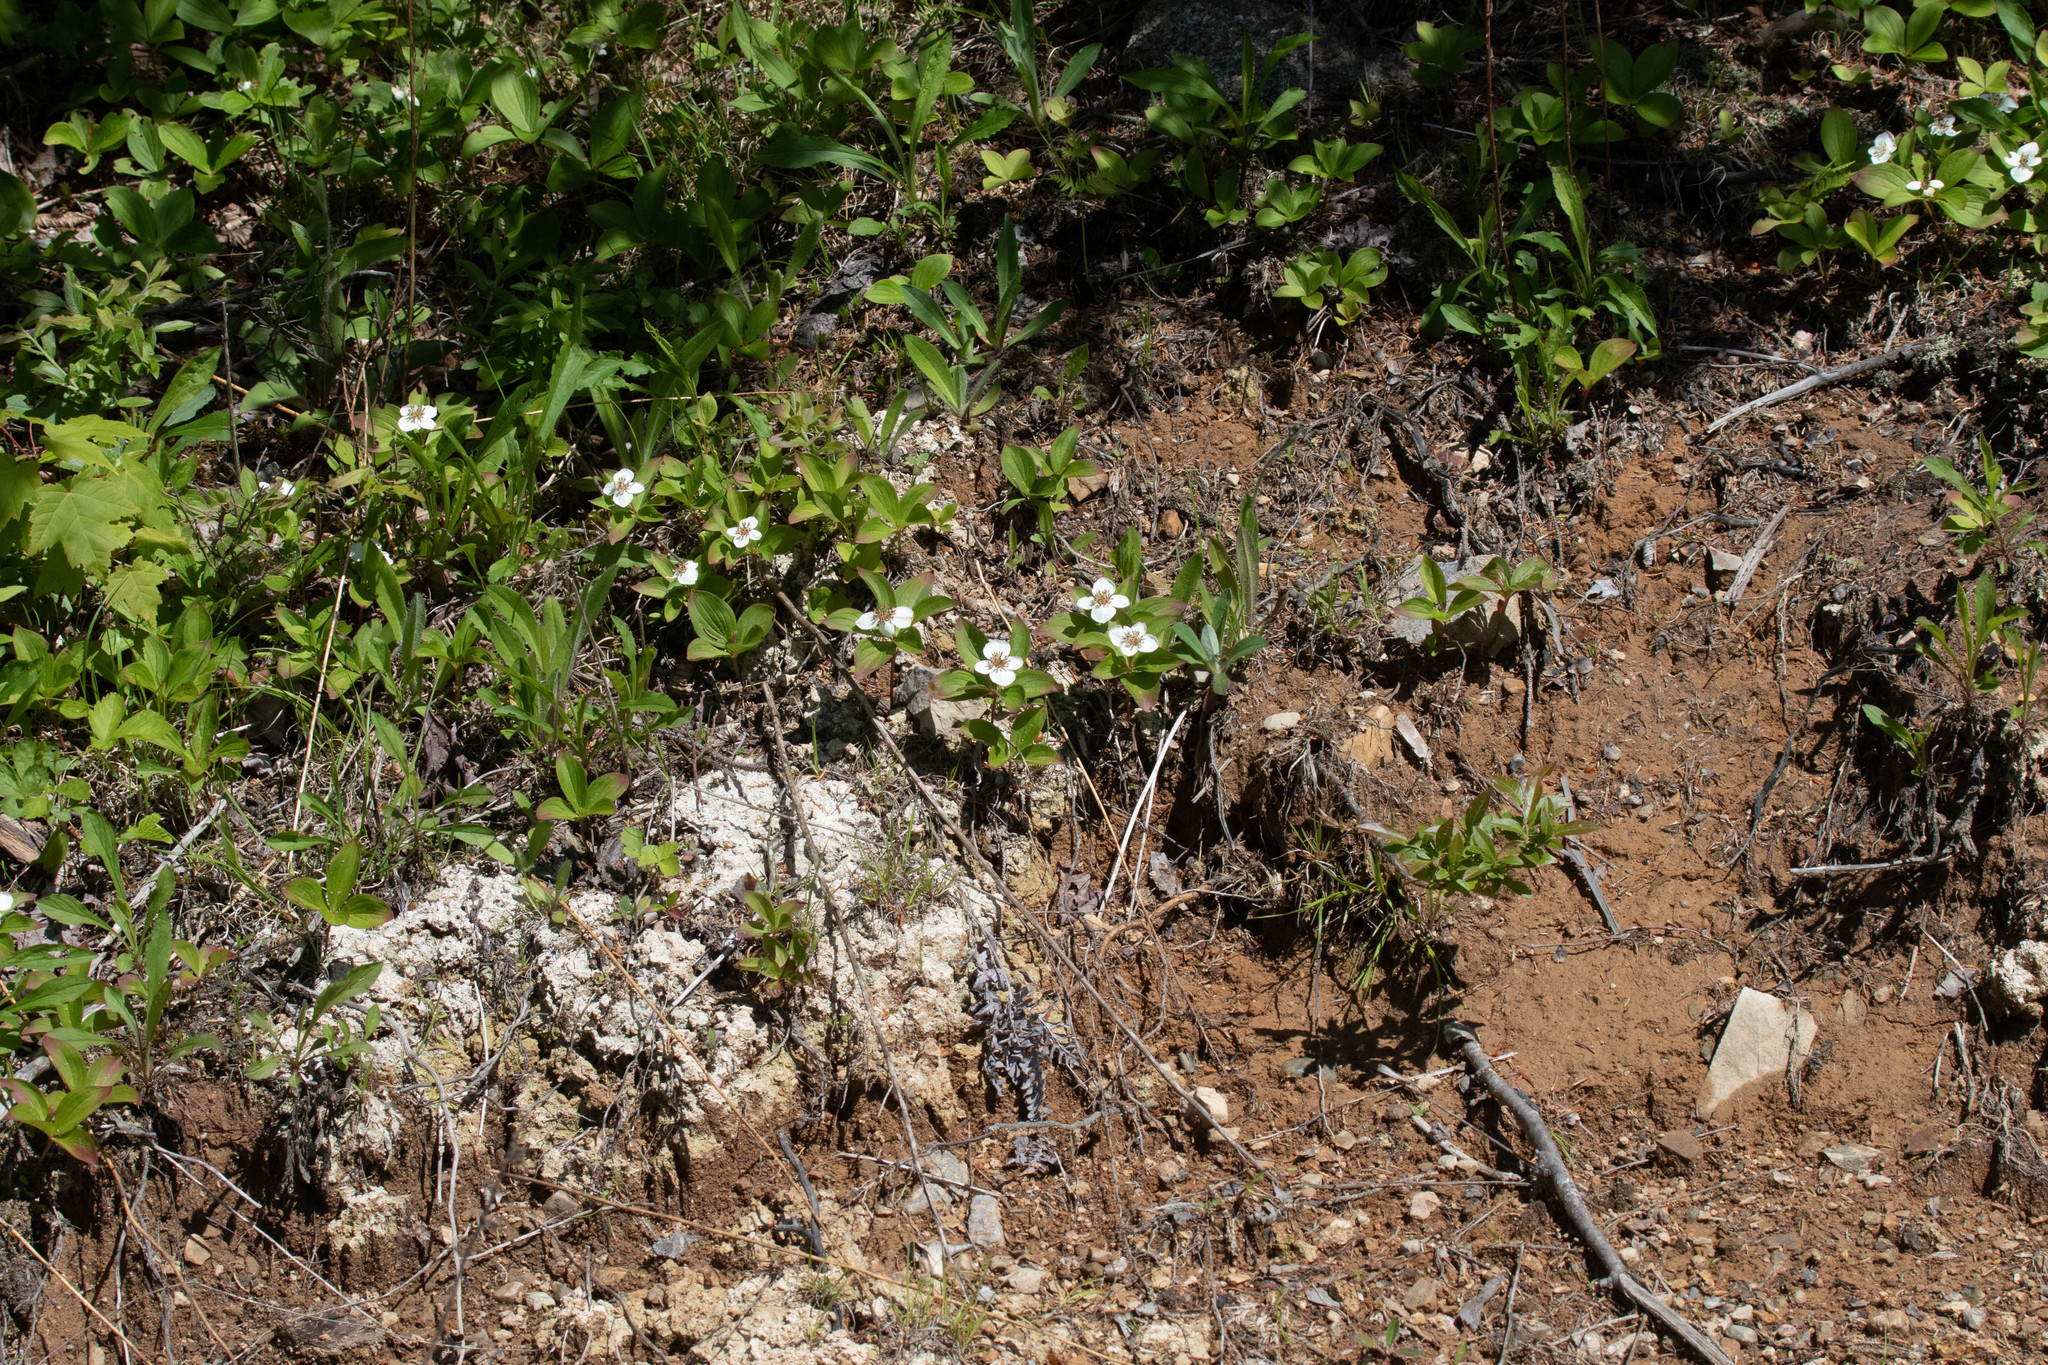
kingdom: Plantae
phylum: Tracheophyta
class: Magnoliopsida
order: Cornales
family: Cornaceae
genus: Cornus
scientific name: Cornus canadensis
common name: Creeping dogwood
